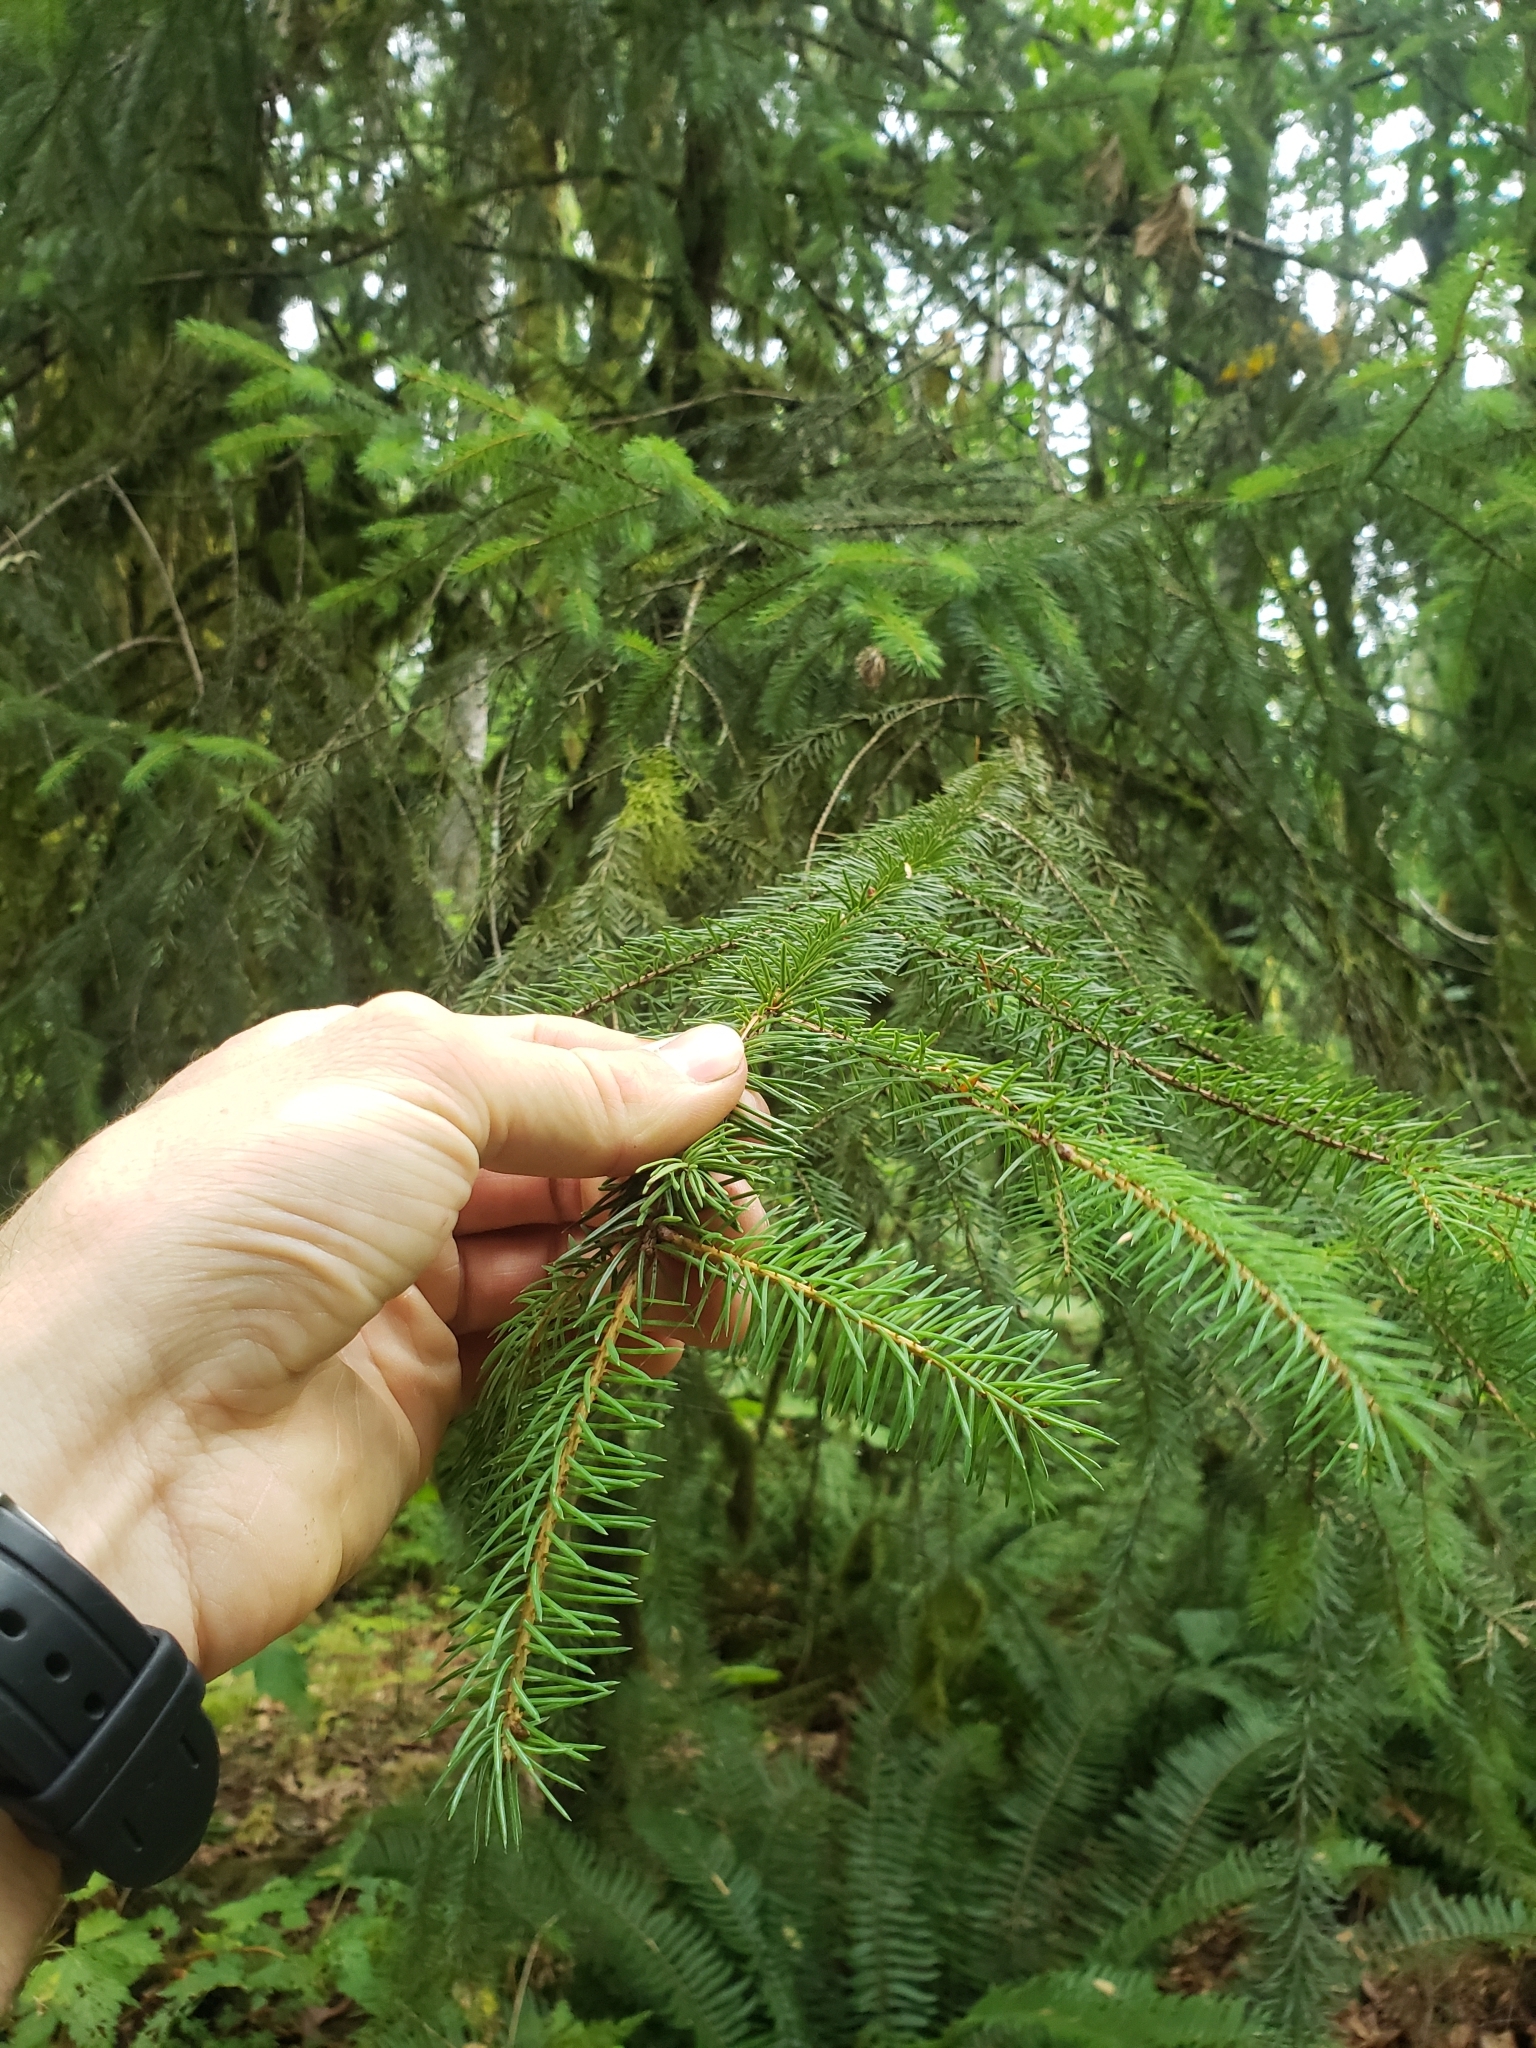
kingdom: Plantae
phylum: Tracheophyta
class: Pinopsida
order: Pinales
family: Pinaceae
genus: Picea
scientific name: Picea sitchensis
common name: Sitka spruce
